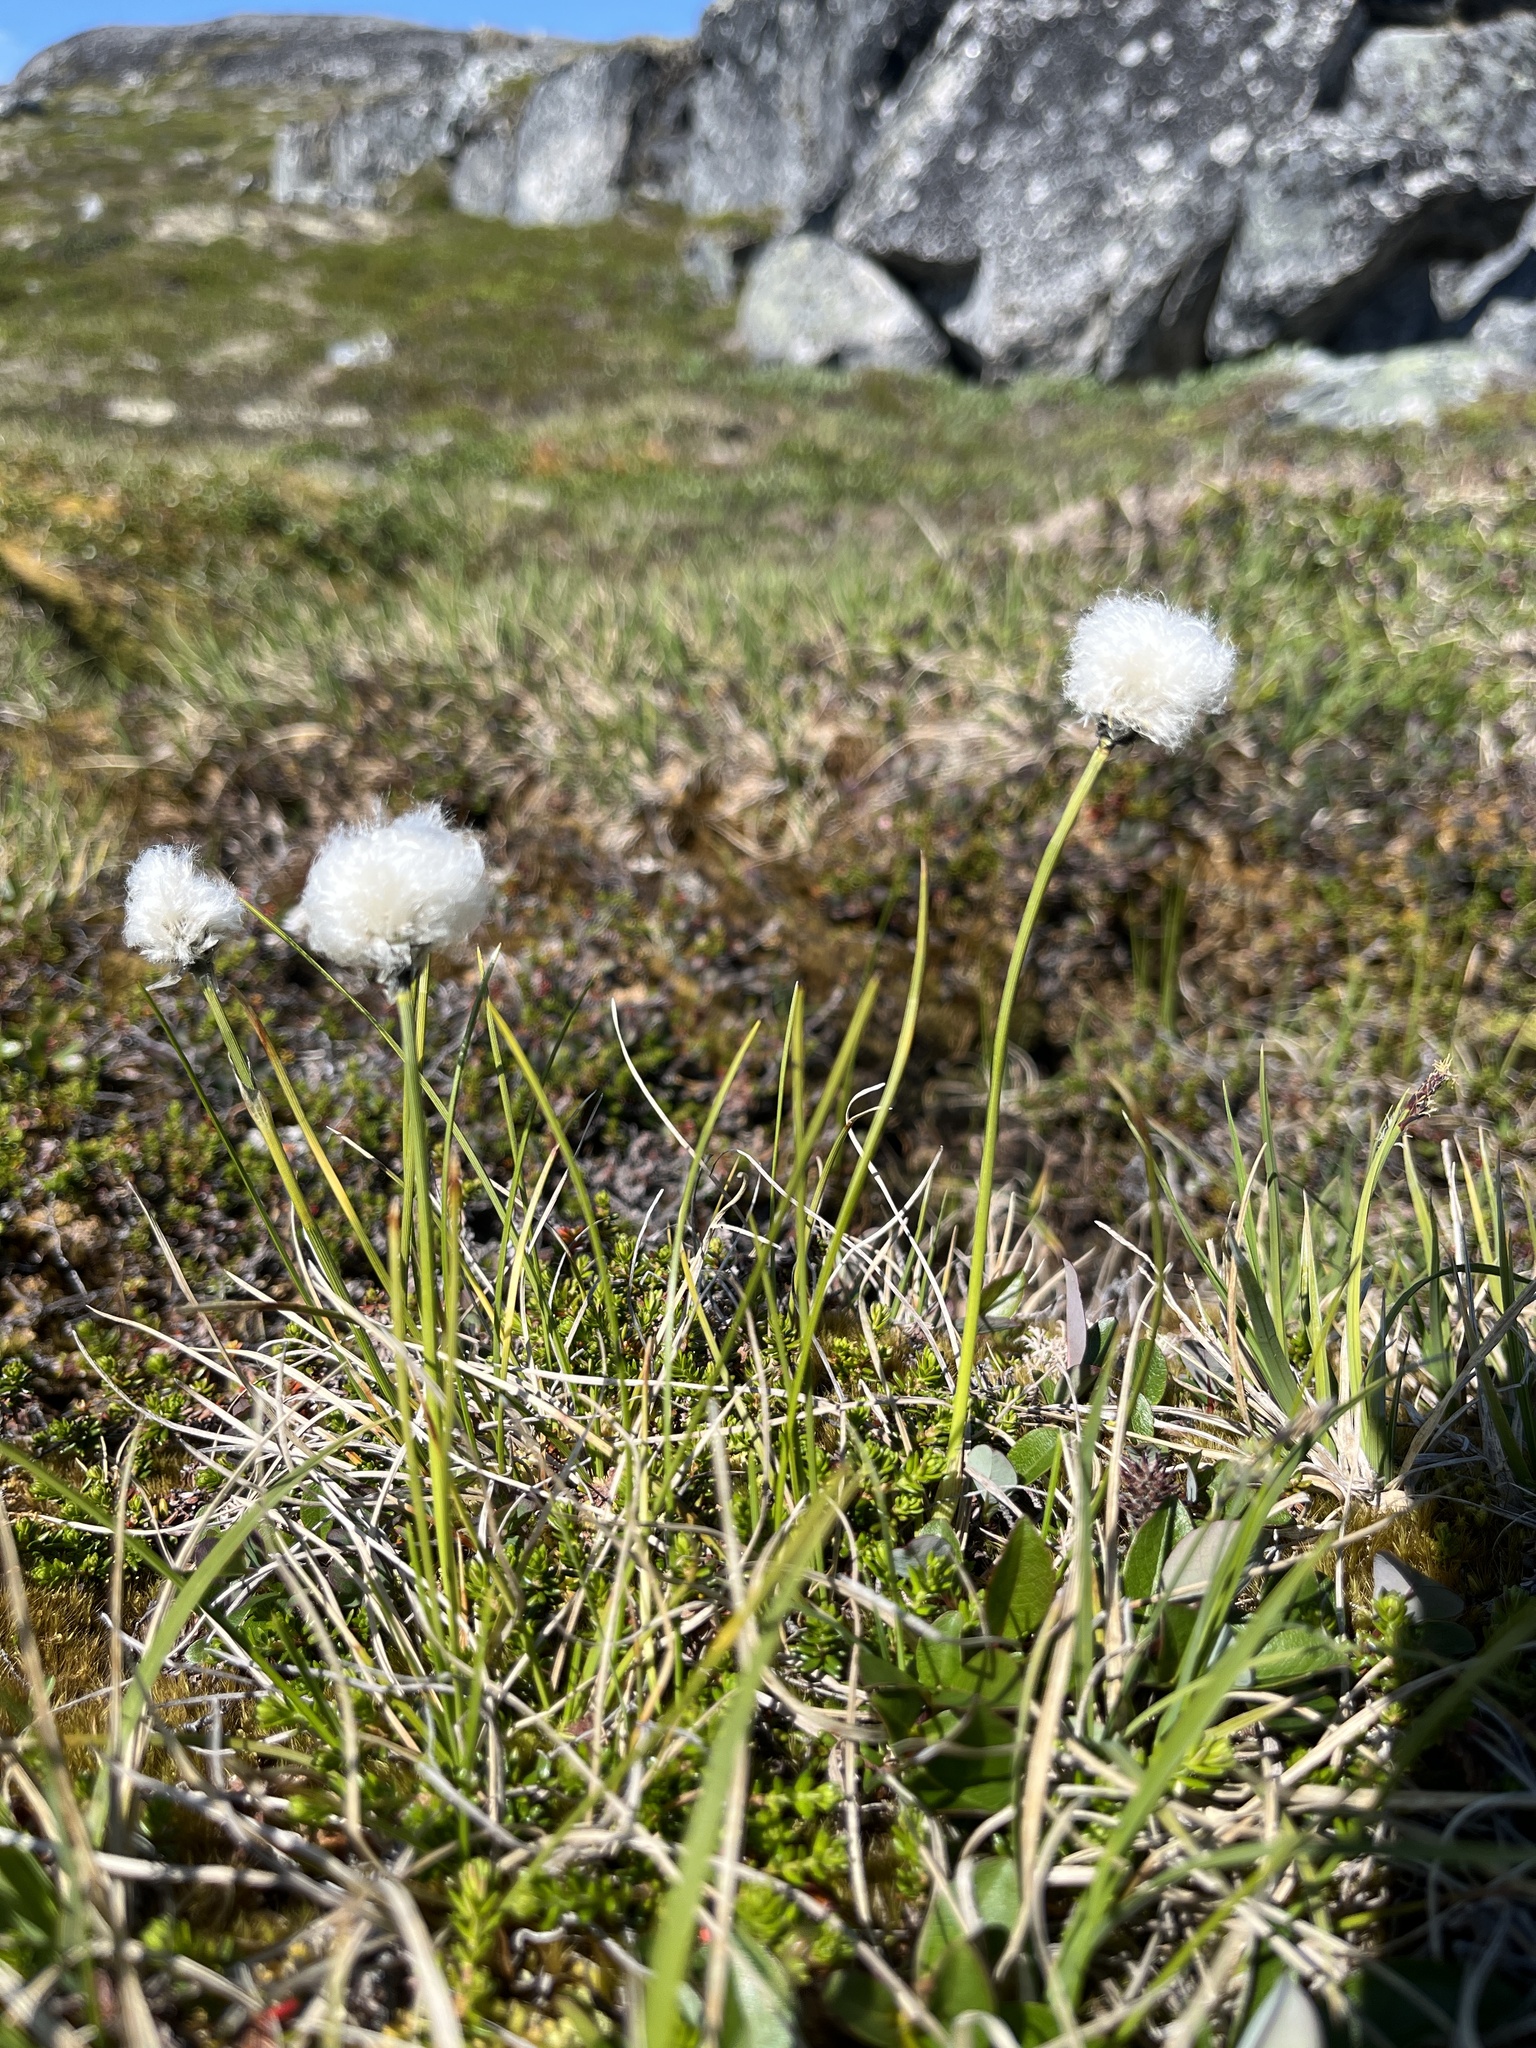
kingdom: Plantae
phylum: Tracheophyta
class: Liliopsida
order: Poales
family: Cyperaceae
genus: Eriophorum
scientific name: Eriophorum vaginatum
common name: Hare's-tail cottongrass
